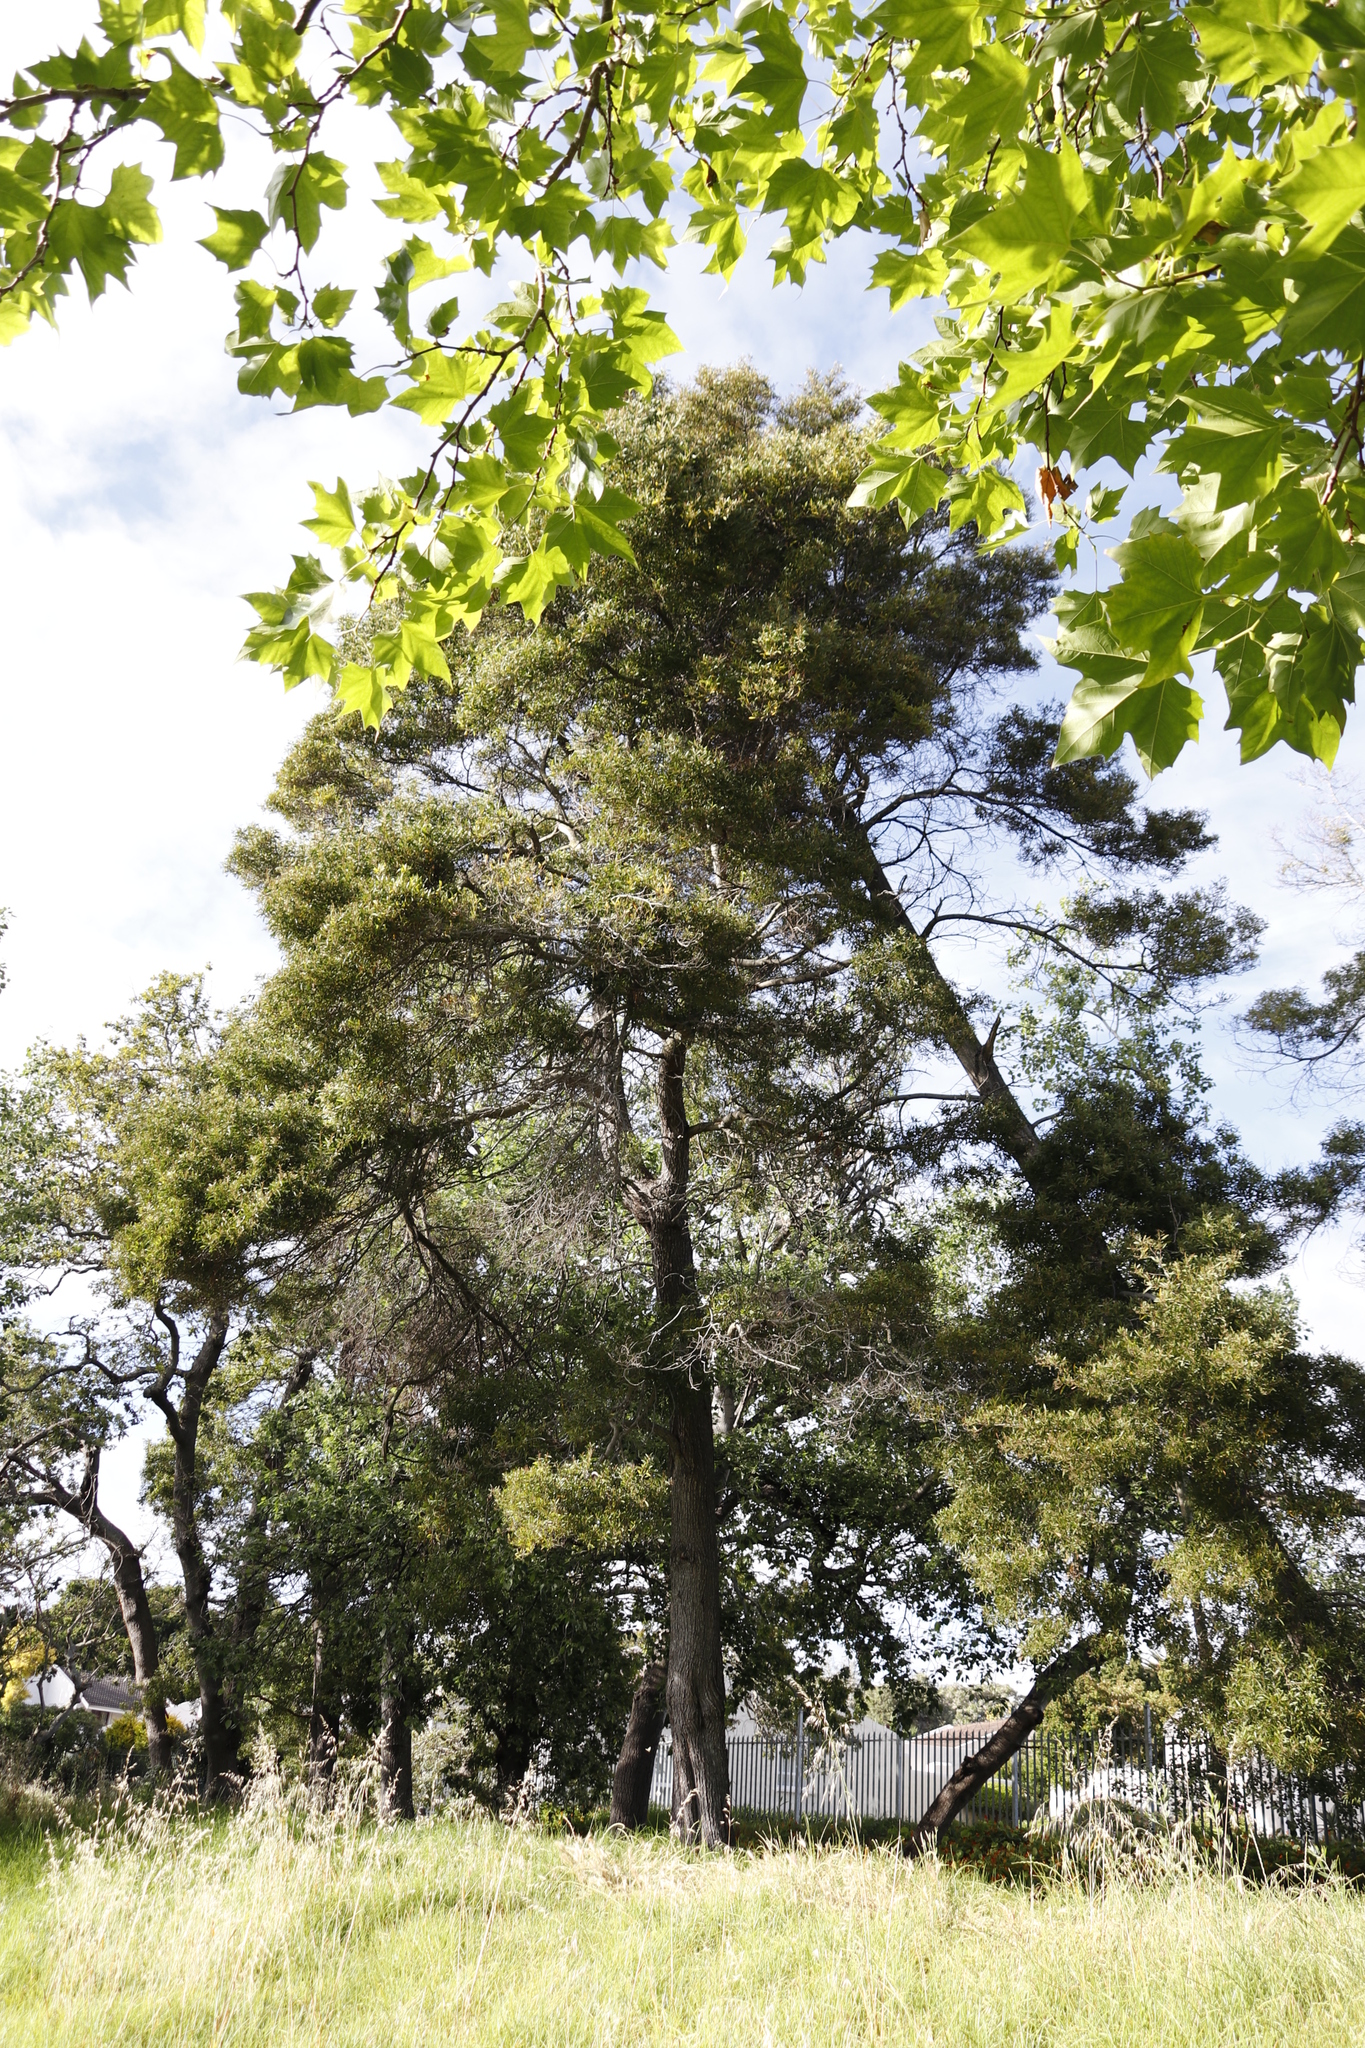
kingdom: Plantae
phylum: Tracheophyta
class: Magnoliopsida
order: Fabales
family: Fabaceae
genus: Acacia
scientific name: Acacia melanoxylon
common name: Blackwood
